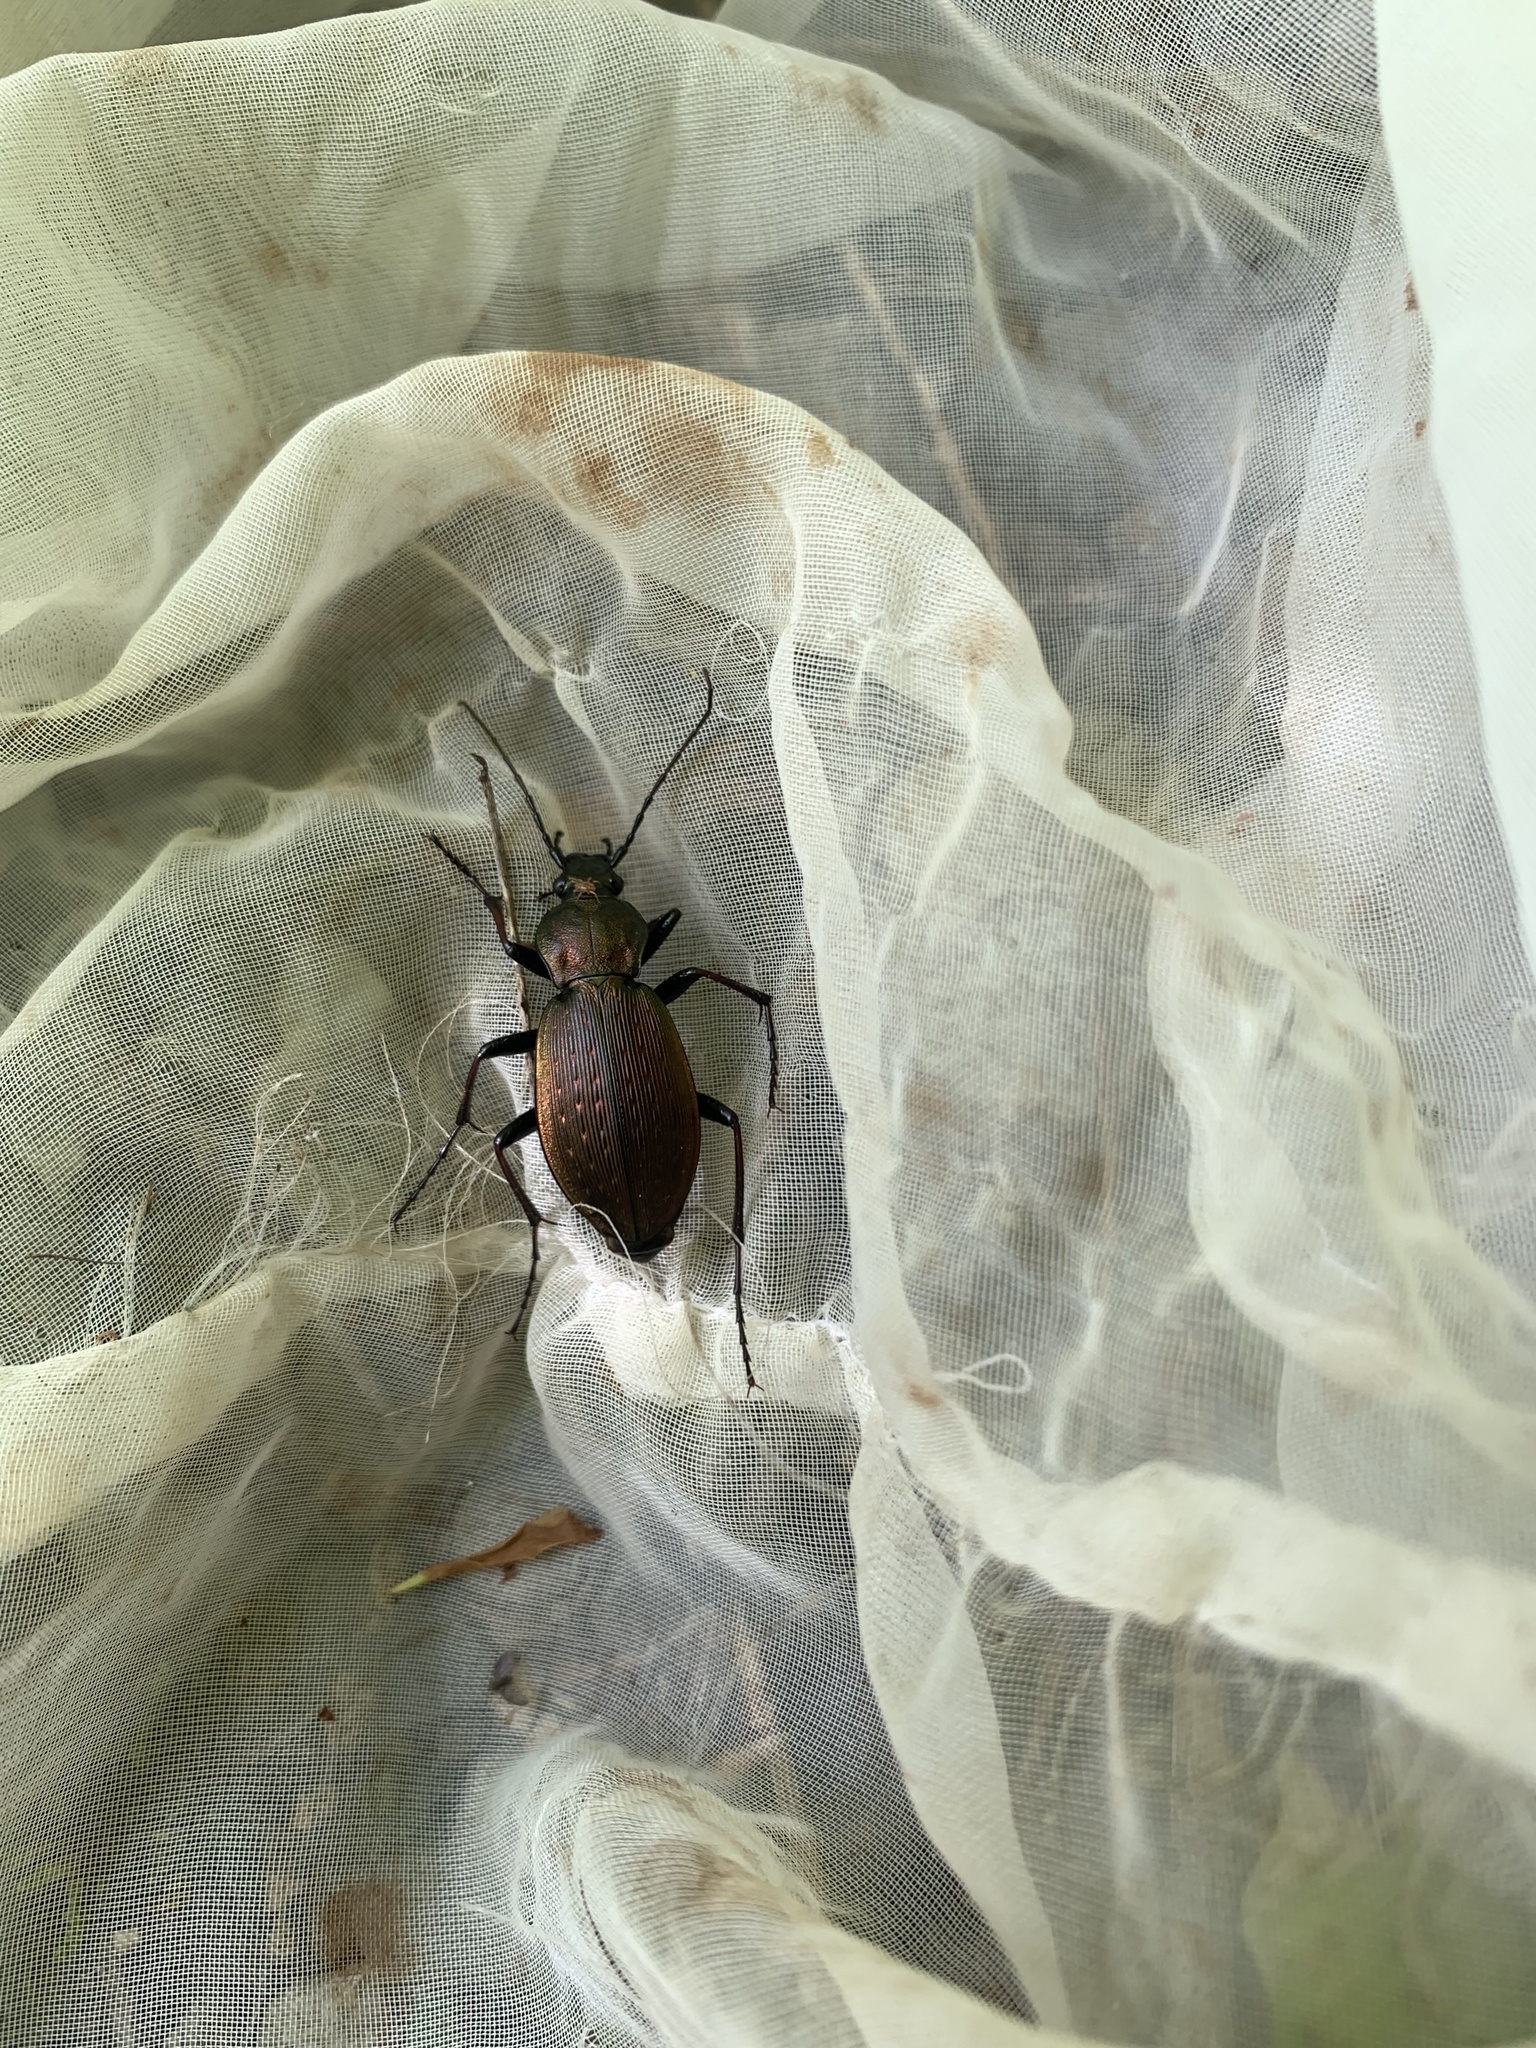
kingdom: Animalia
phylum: Arthropoda
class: Insecta
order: Coleoptera
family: Carabidae
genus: Carabus
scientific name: Carabus esakii
